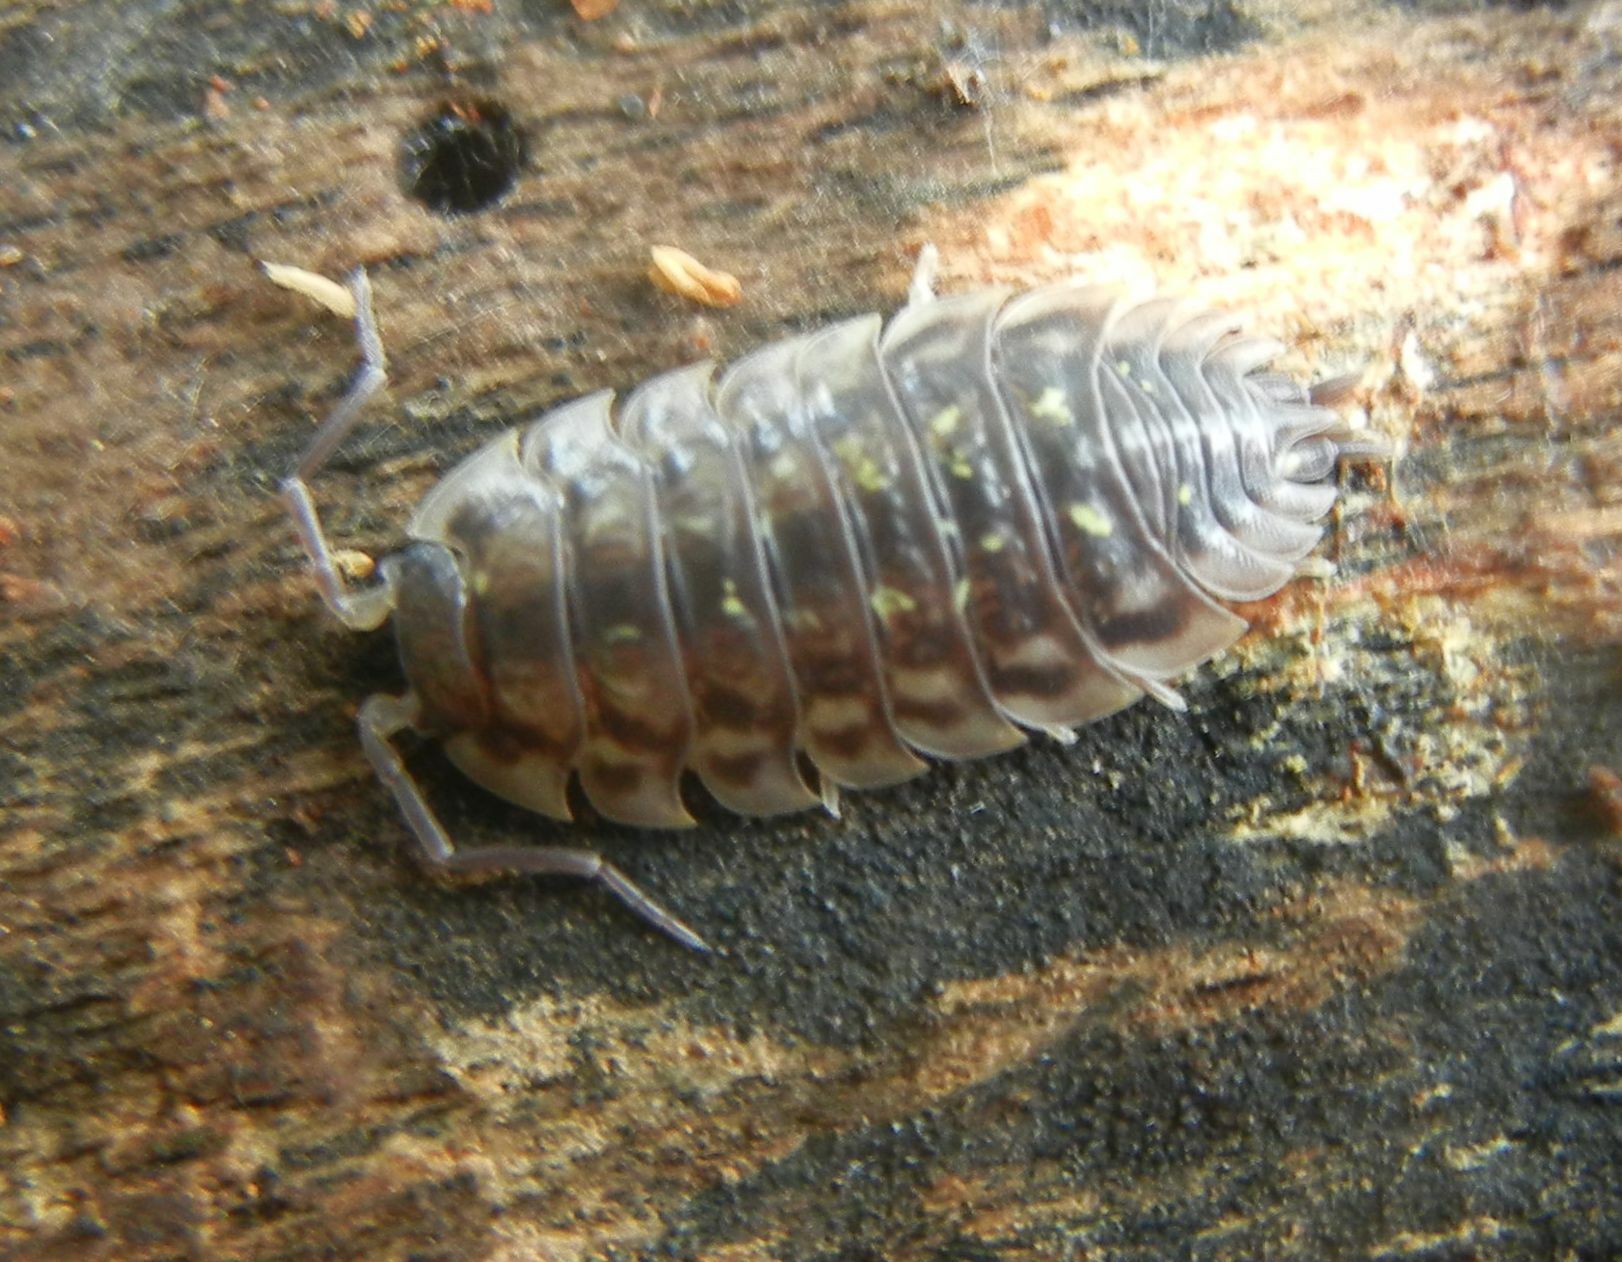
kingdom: Animalia
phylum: Arthropoda
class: Malacostraca
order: Isopoda
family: Oniscidae
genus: Oniscus
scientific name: Oniscus asellus
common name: Common shiny woodlouse
